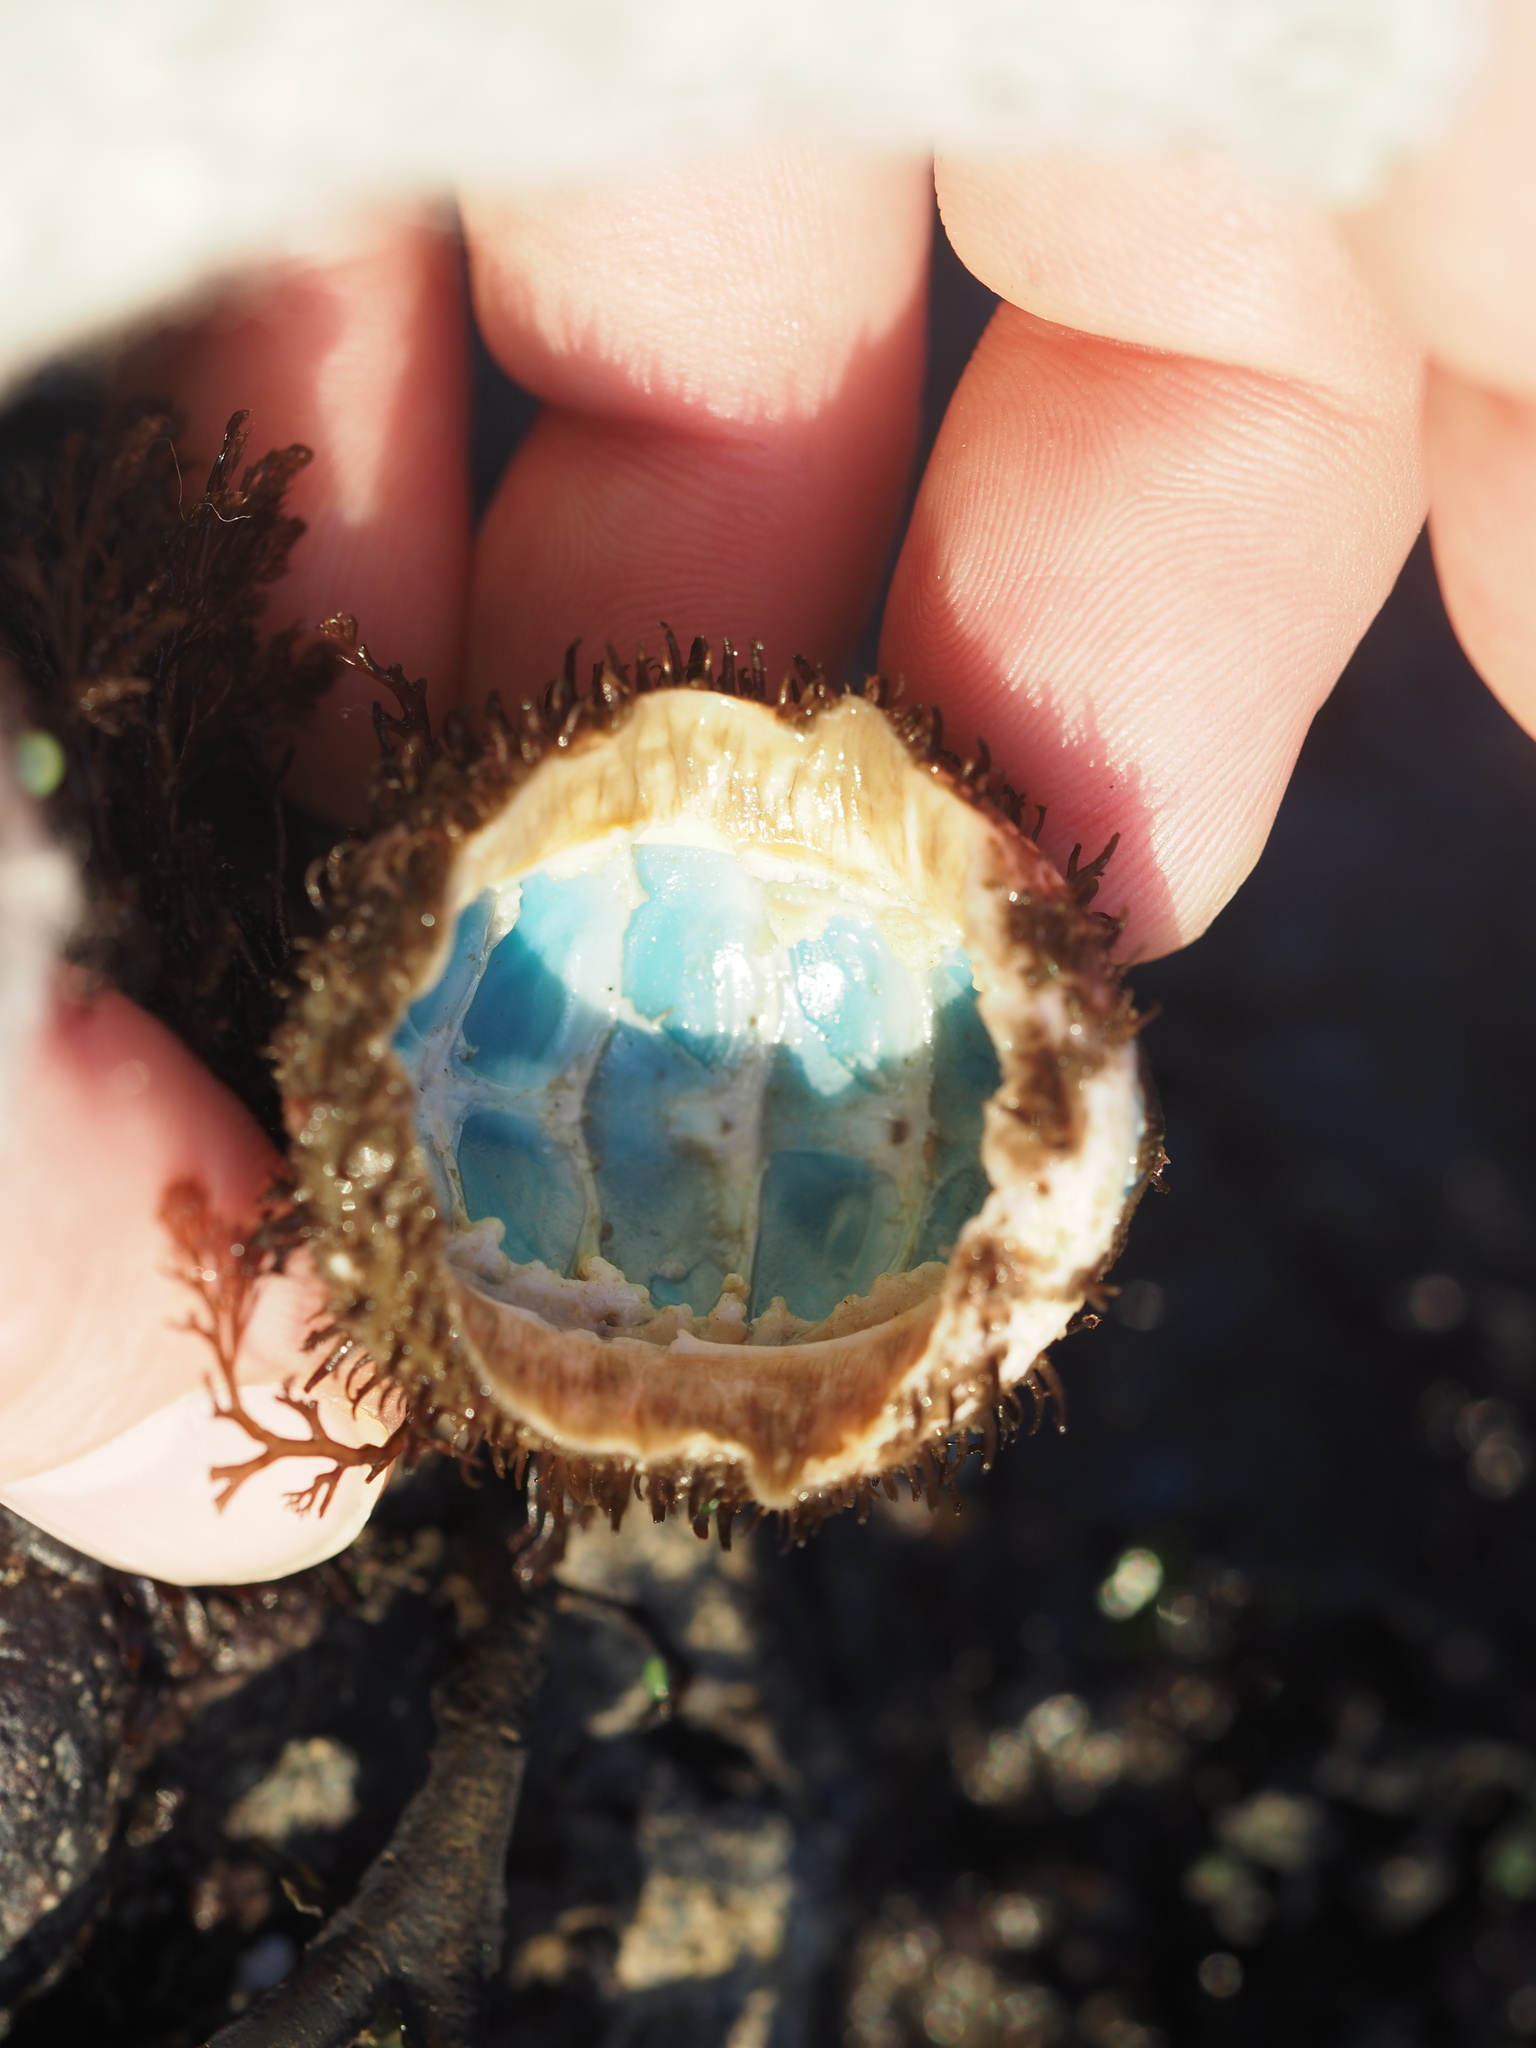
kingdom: Animalia
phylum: Mollusca
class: Polyplacophora
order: Chitonida
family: Mopaliidae
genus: Mopalia
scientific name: Mopalia muscosa
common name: Mossy chiton
